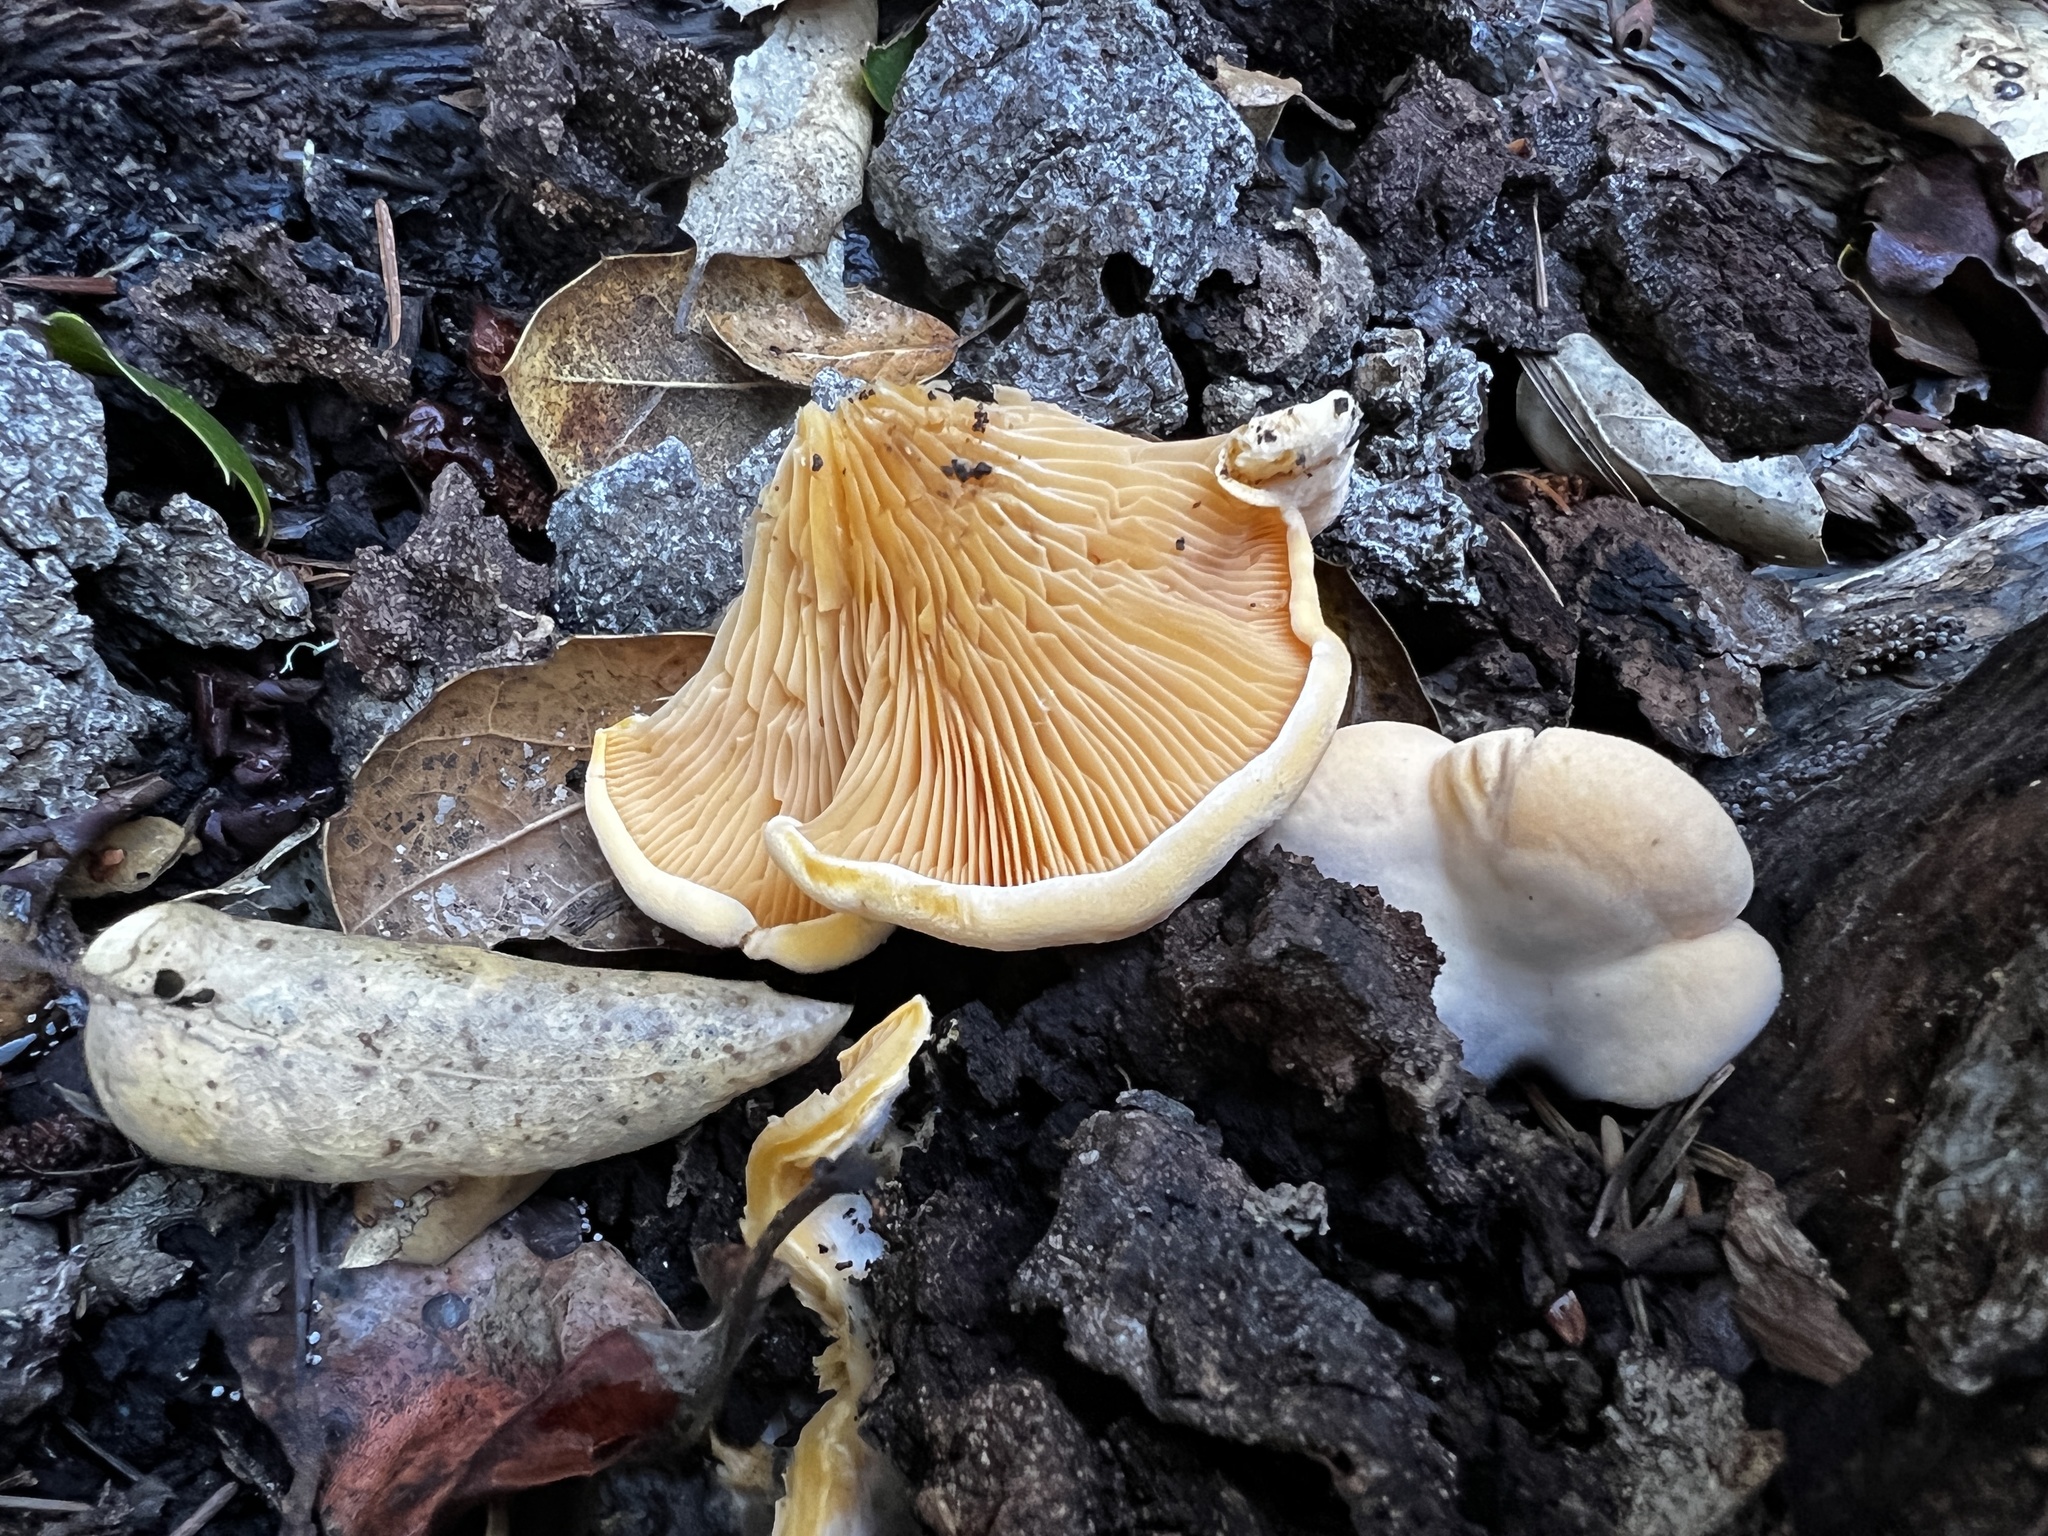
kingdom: Fungi
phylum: Basidiomycota
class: Agaricomycetes
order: Agaricales
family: Phyllotopsidaceae
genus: Phyllotopsis
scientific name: Phyllotopsis nidulans
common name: Orange mock oyster
